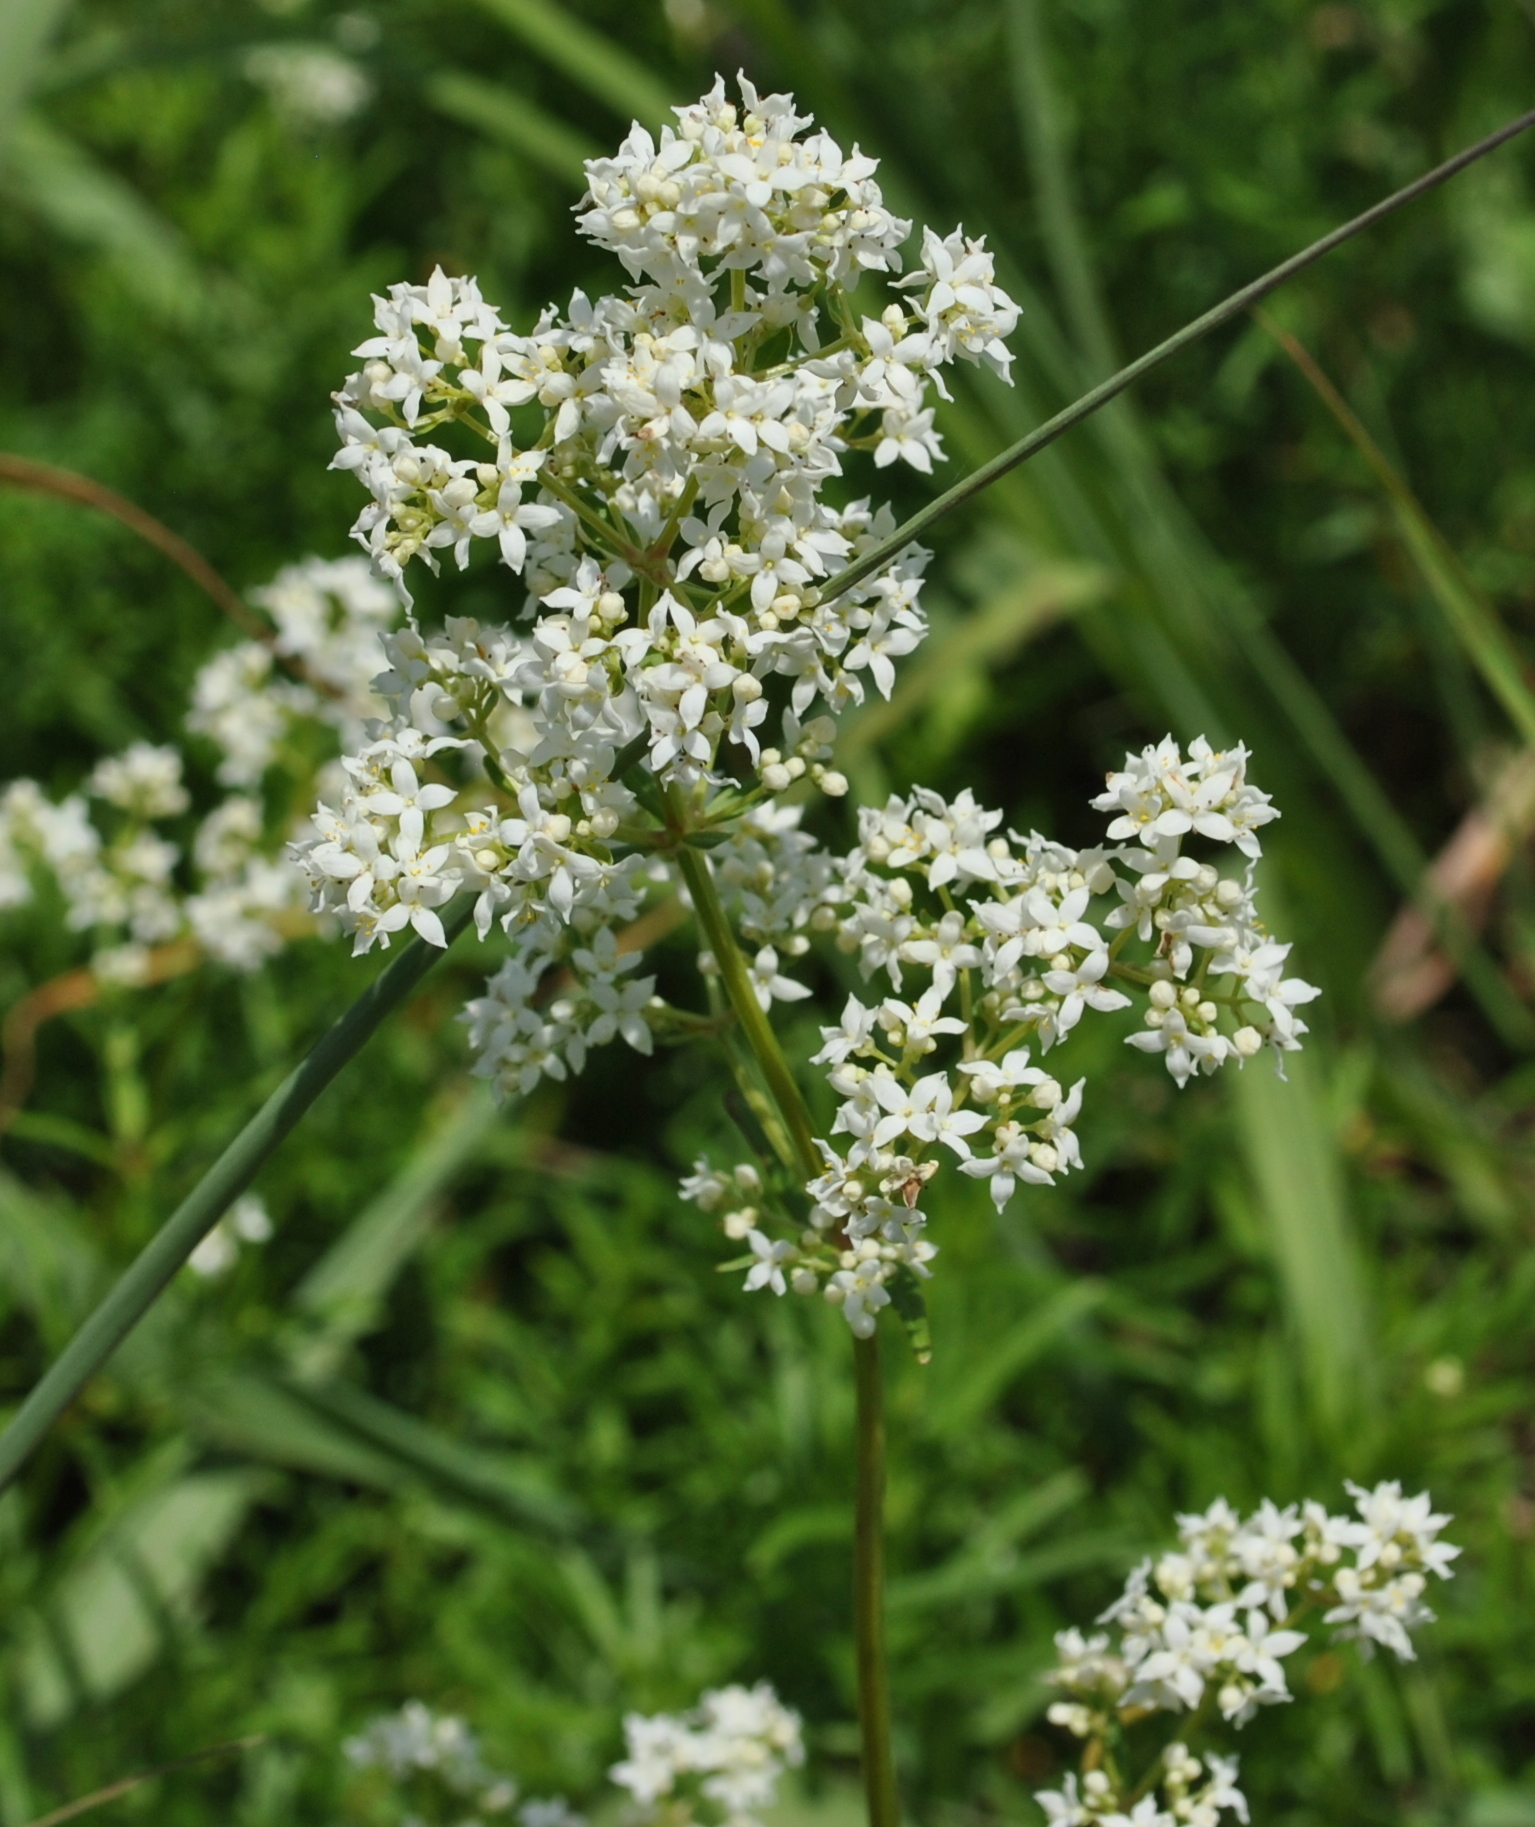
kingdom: Plantae
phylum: Tracheophyta
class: Magnoliopsida
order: Gentianales
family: Rubiaceae
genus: Galium
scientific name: Galium boreale
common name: Northern bedstraw
